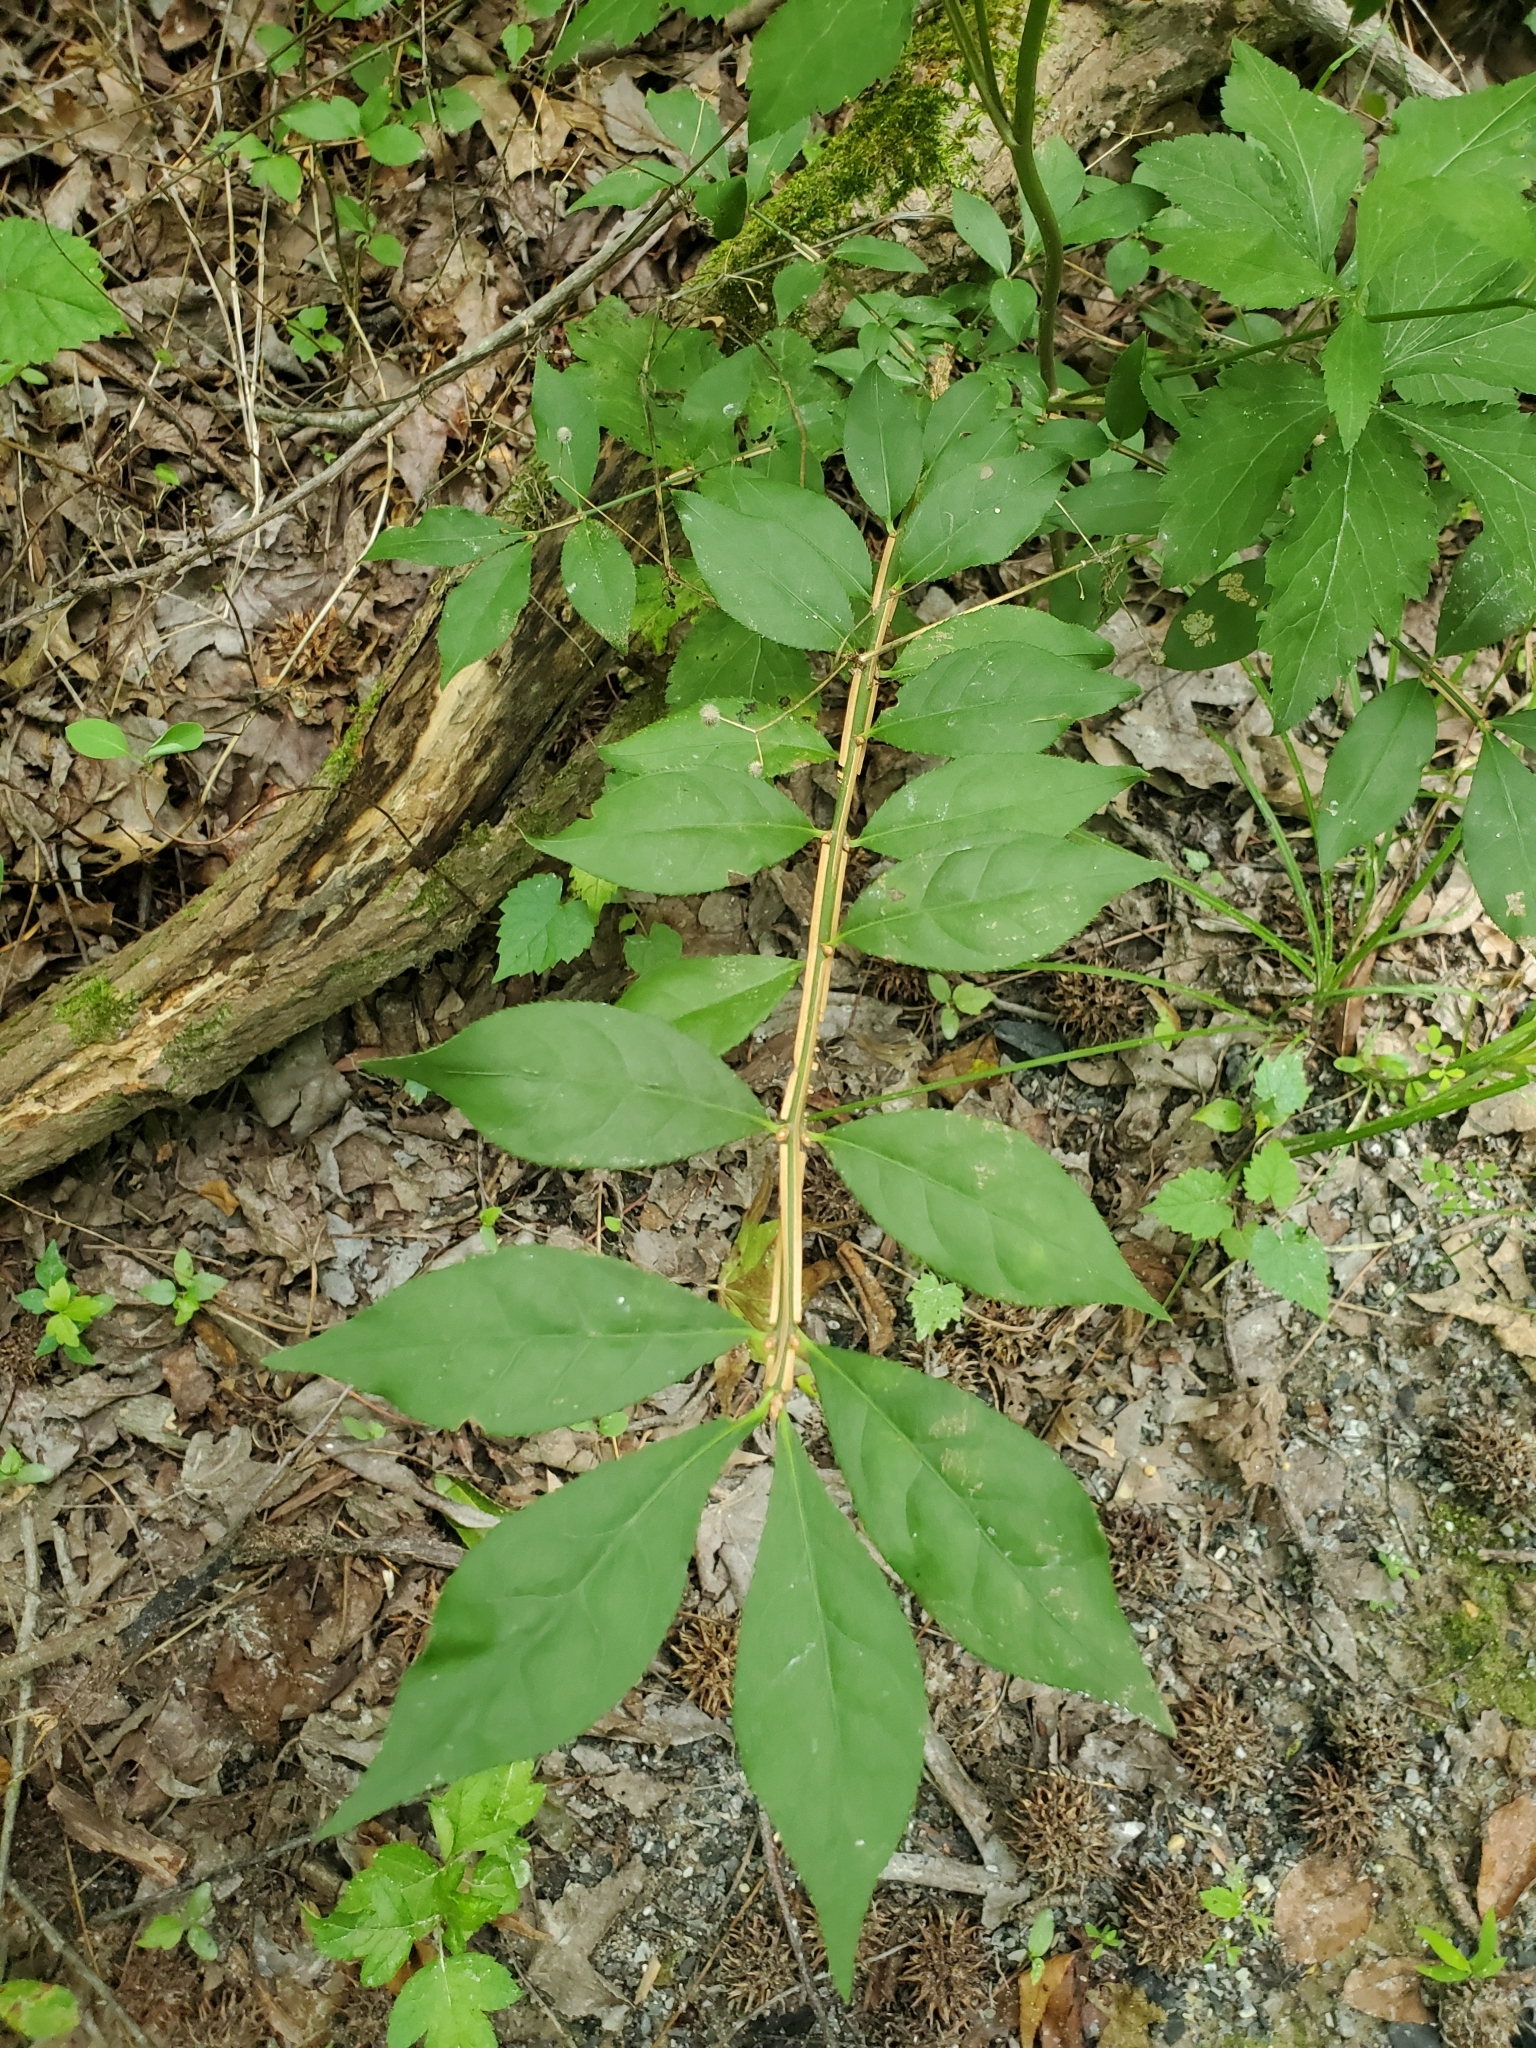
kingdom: Plantae
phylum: Tracheophyta
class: Magnoliopsida
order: Celastrales
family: Celastraceae
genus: Euonymus
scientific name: Euonymus alatus
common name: Winged euonymus
